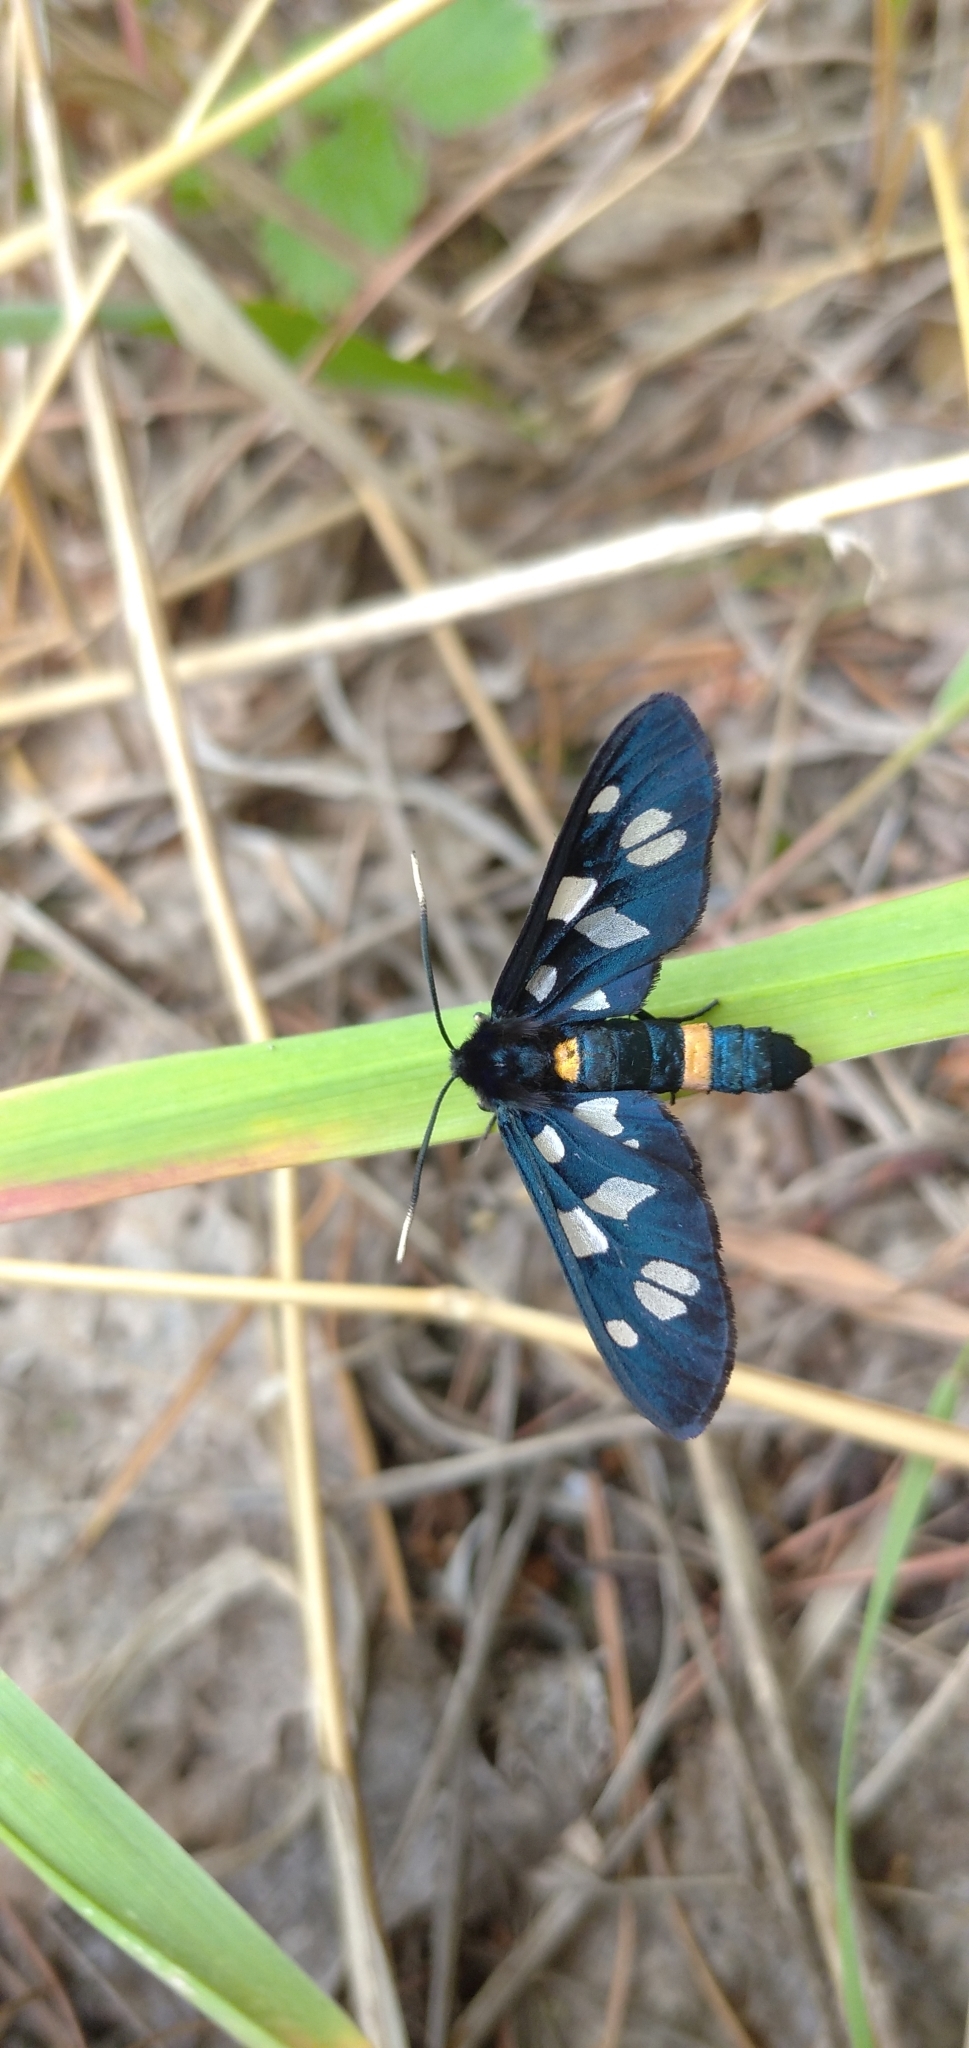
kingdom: Animalia
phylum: Arthropoda
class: Insecta
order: Lepidoptera
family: Erebidae
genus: Amata
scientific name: Amata nigricornis
